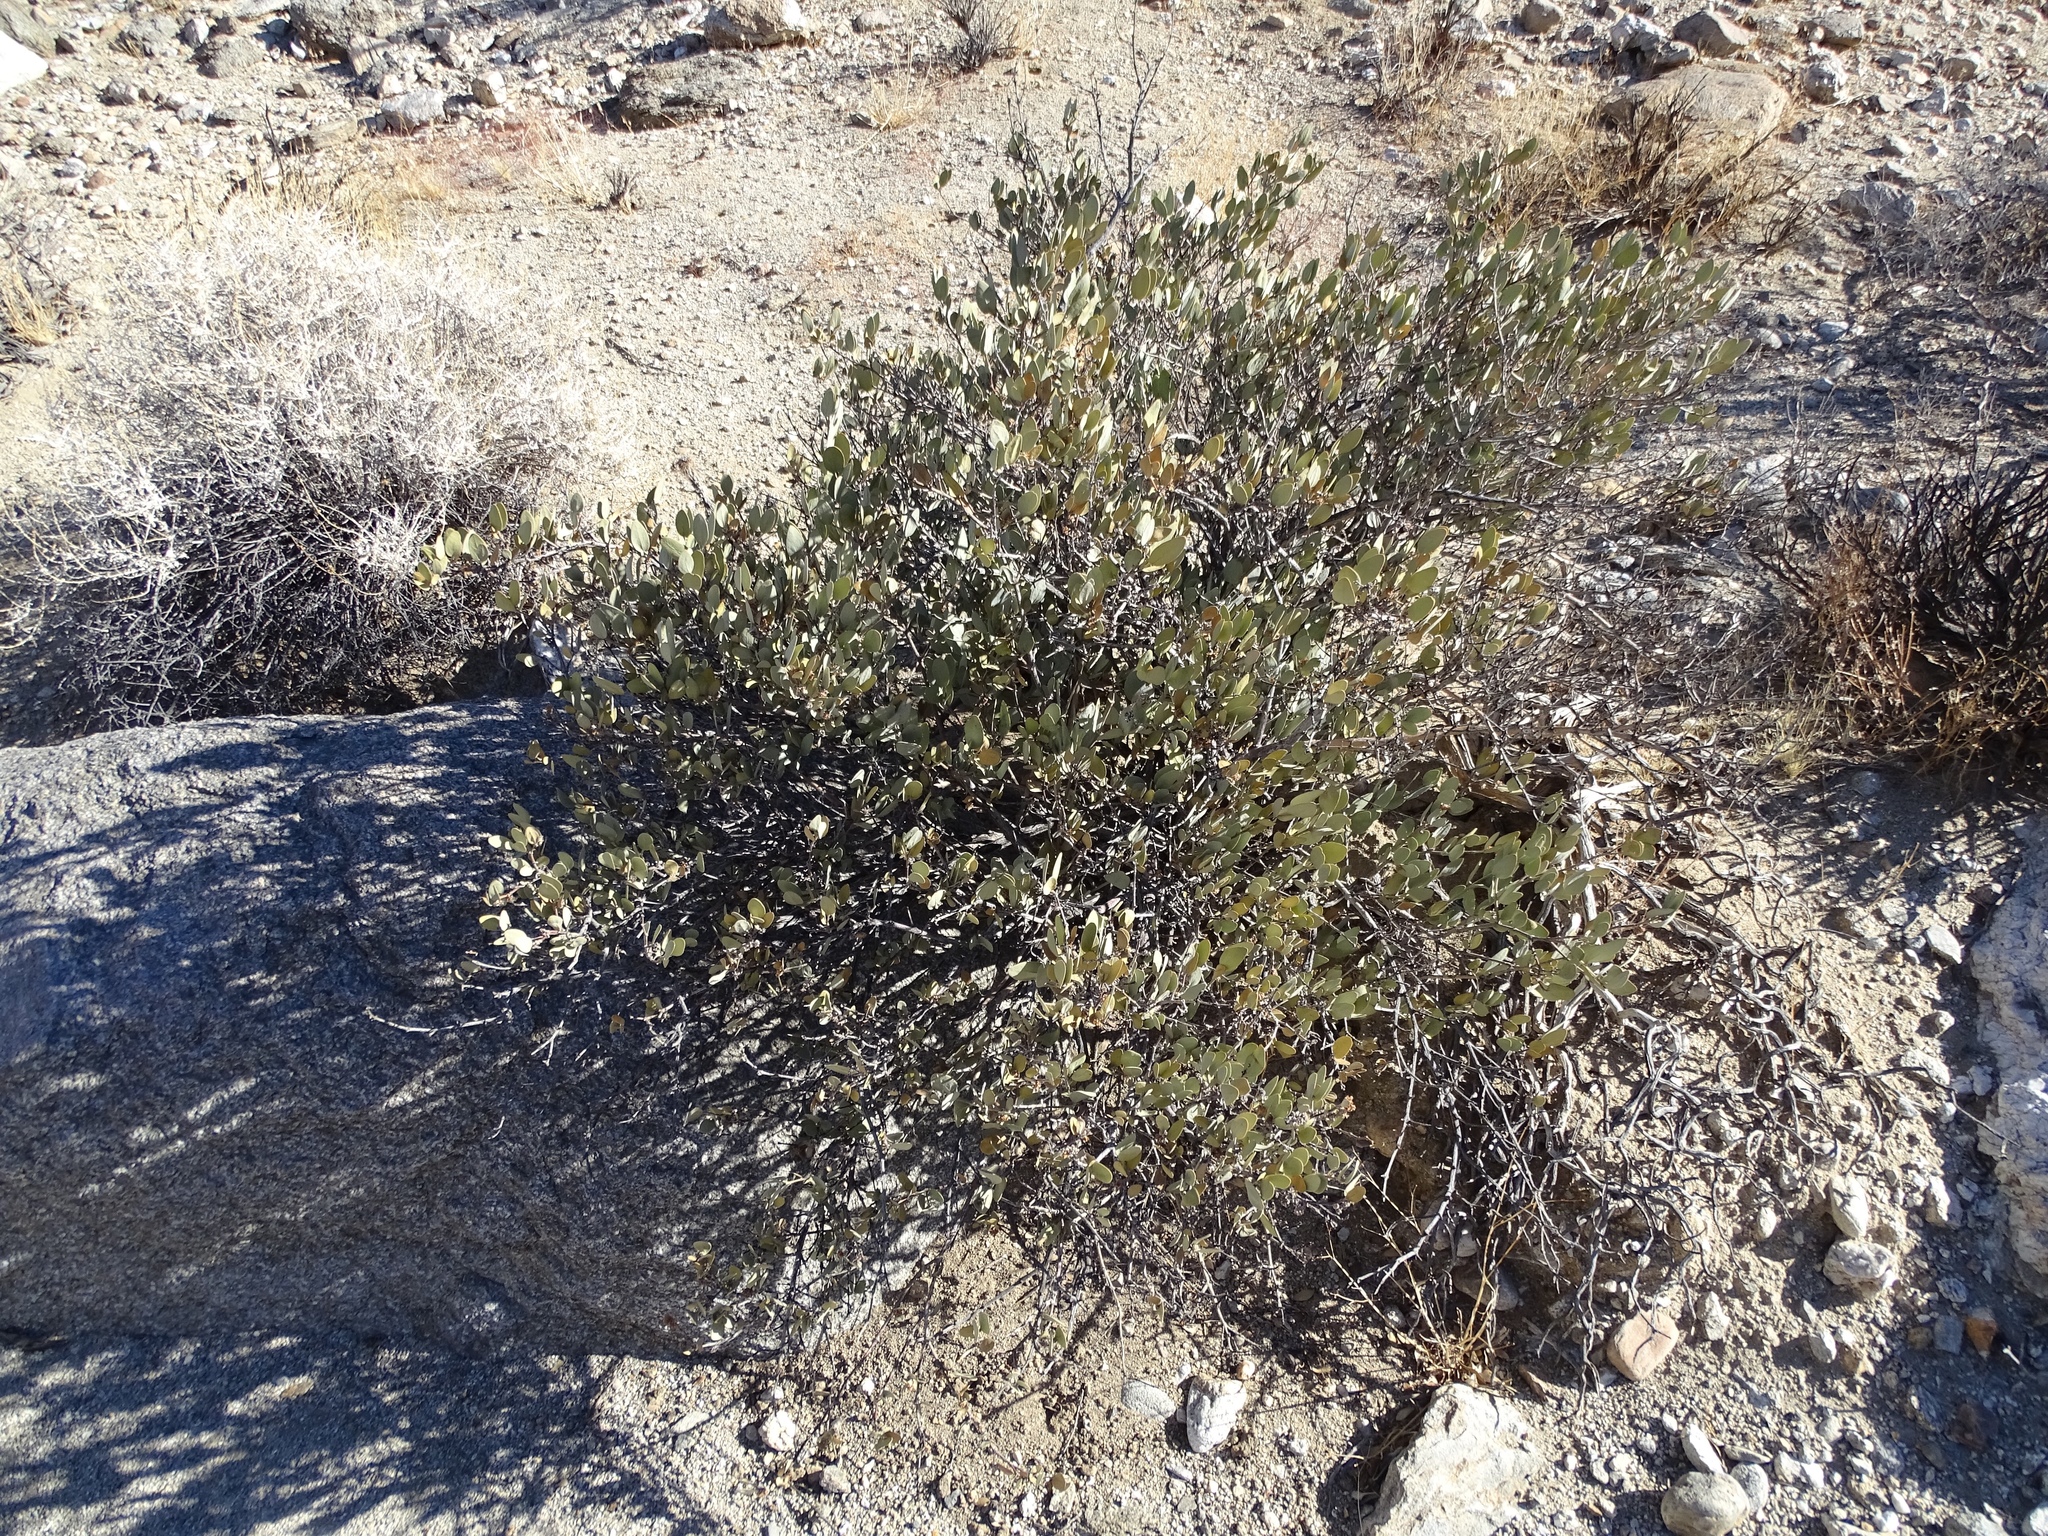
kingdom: Plantae
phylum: Tracheophyta
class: Magnoliopsida
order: Caryophyllales
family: Simmondsiaceae
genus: Simmondsia
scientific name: Simmondsia chinensis
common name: Jojoba
